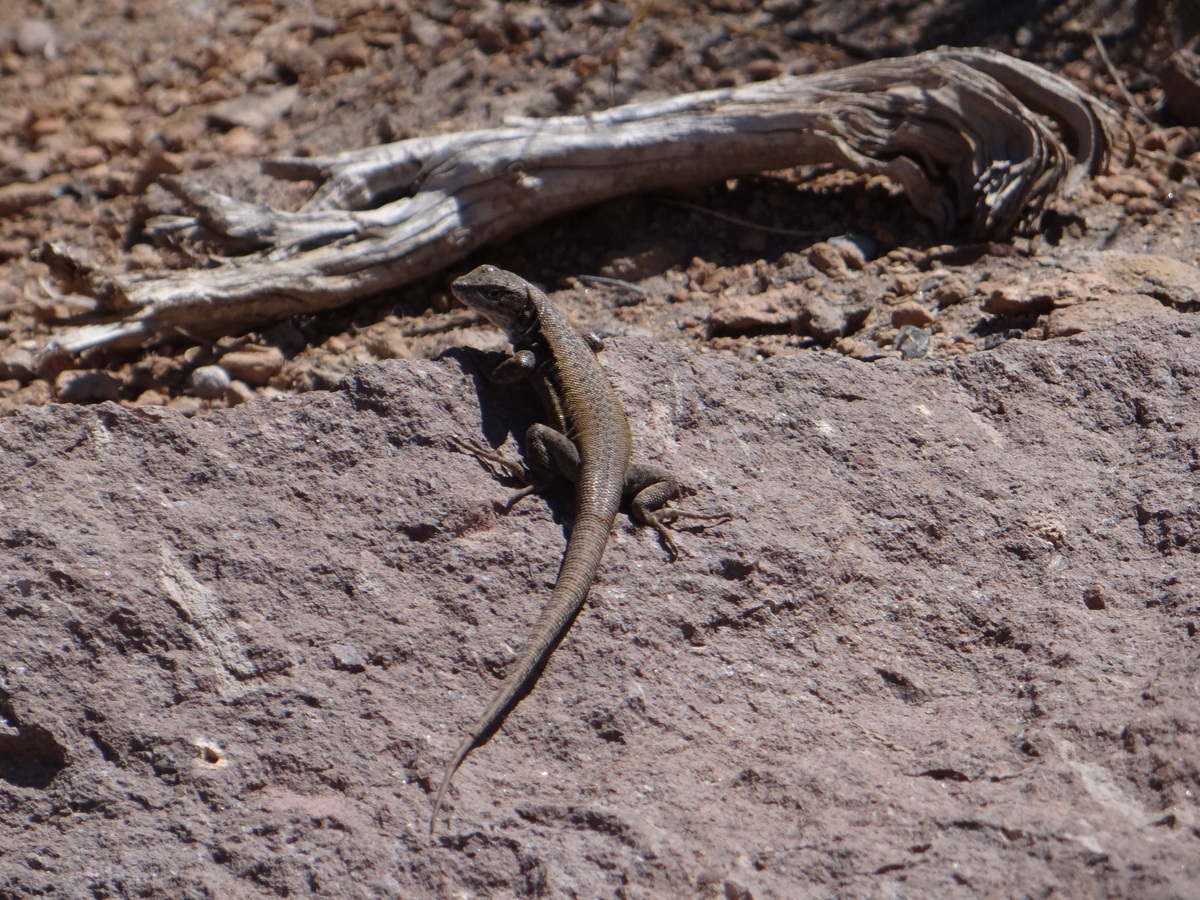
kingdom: Animalia
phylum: Chordata
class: Squamata
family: Liolaemidae
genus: Liolaemus
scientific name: Liolaemus smaug
